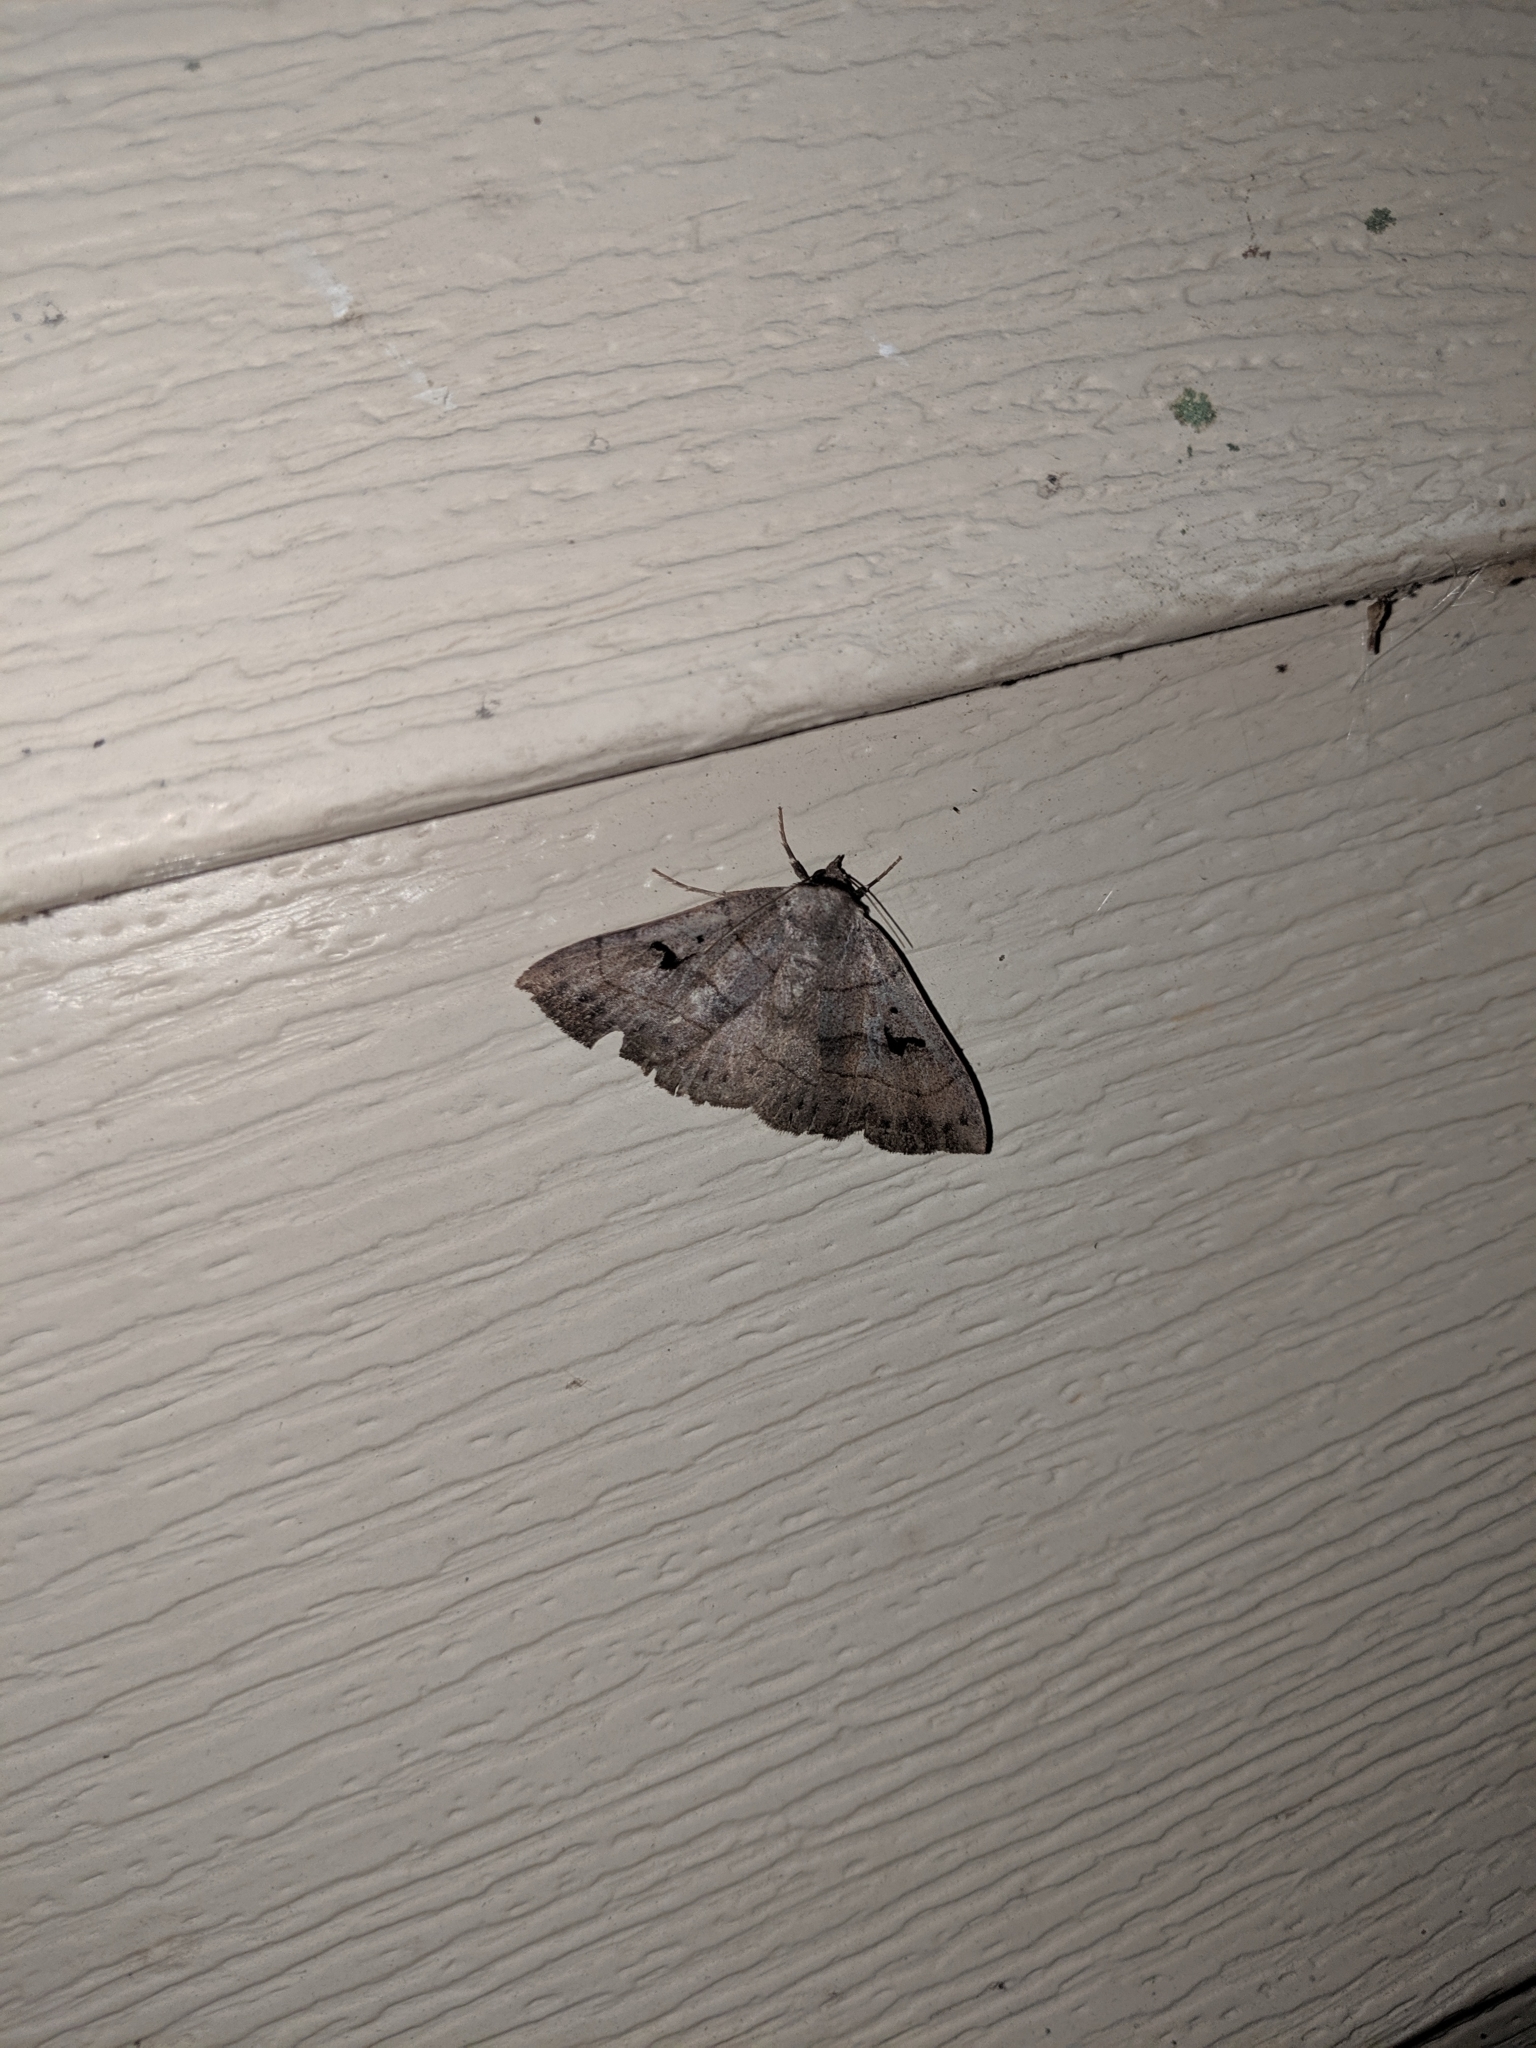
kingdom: Animalia
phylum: Arthropoda
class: Insecta
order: Lepidoptera
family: Erebidae
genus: Panopoda
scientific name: Panopoda carneicosta
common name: Brown panopoda moth
